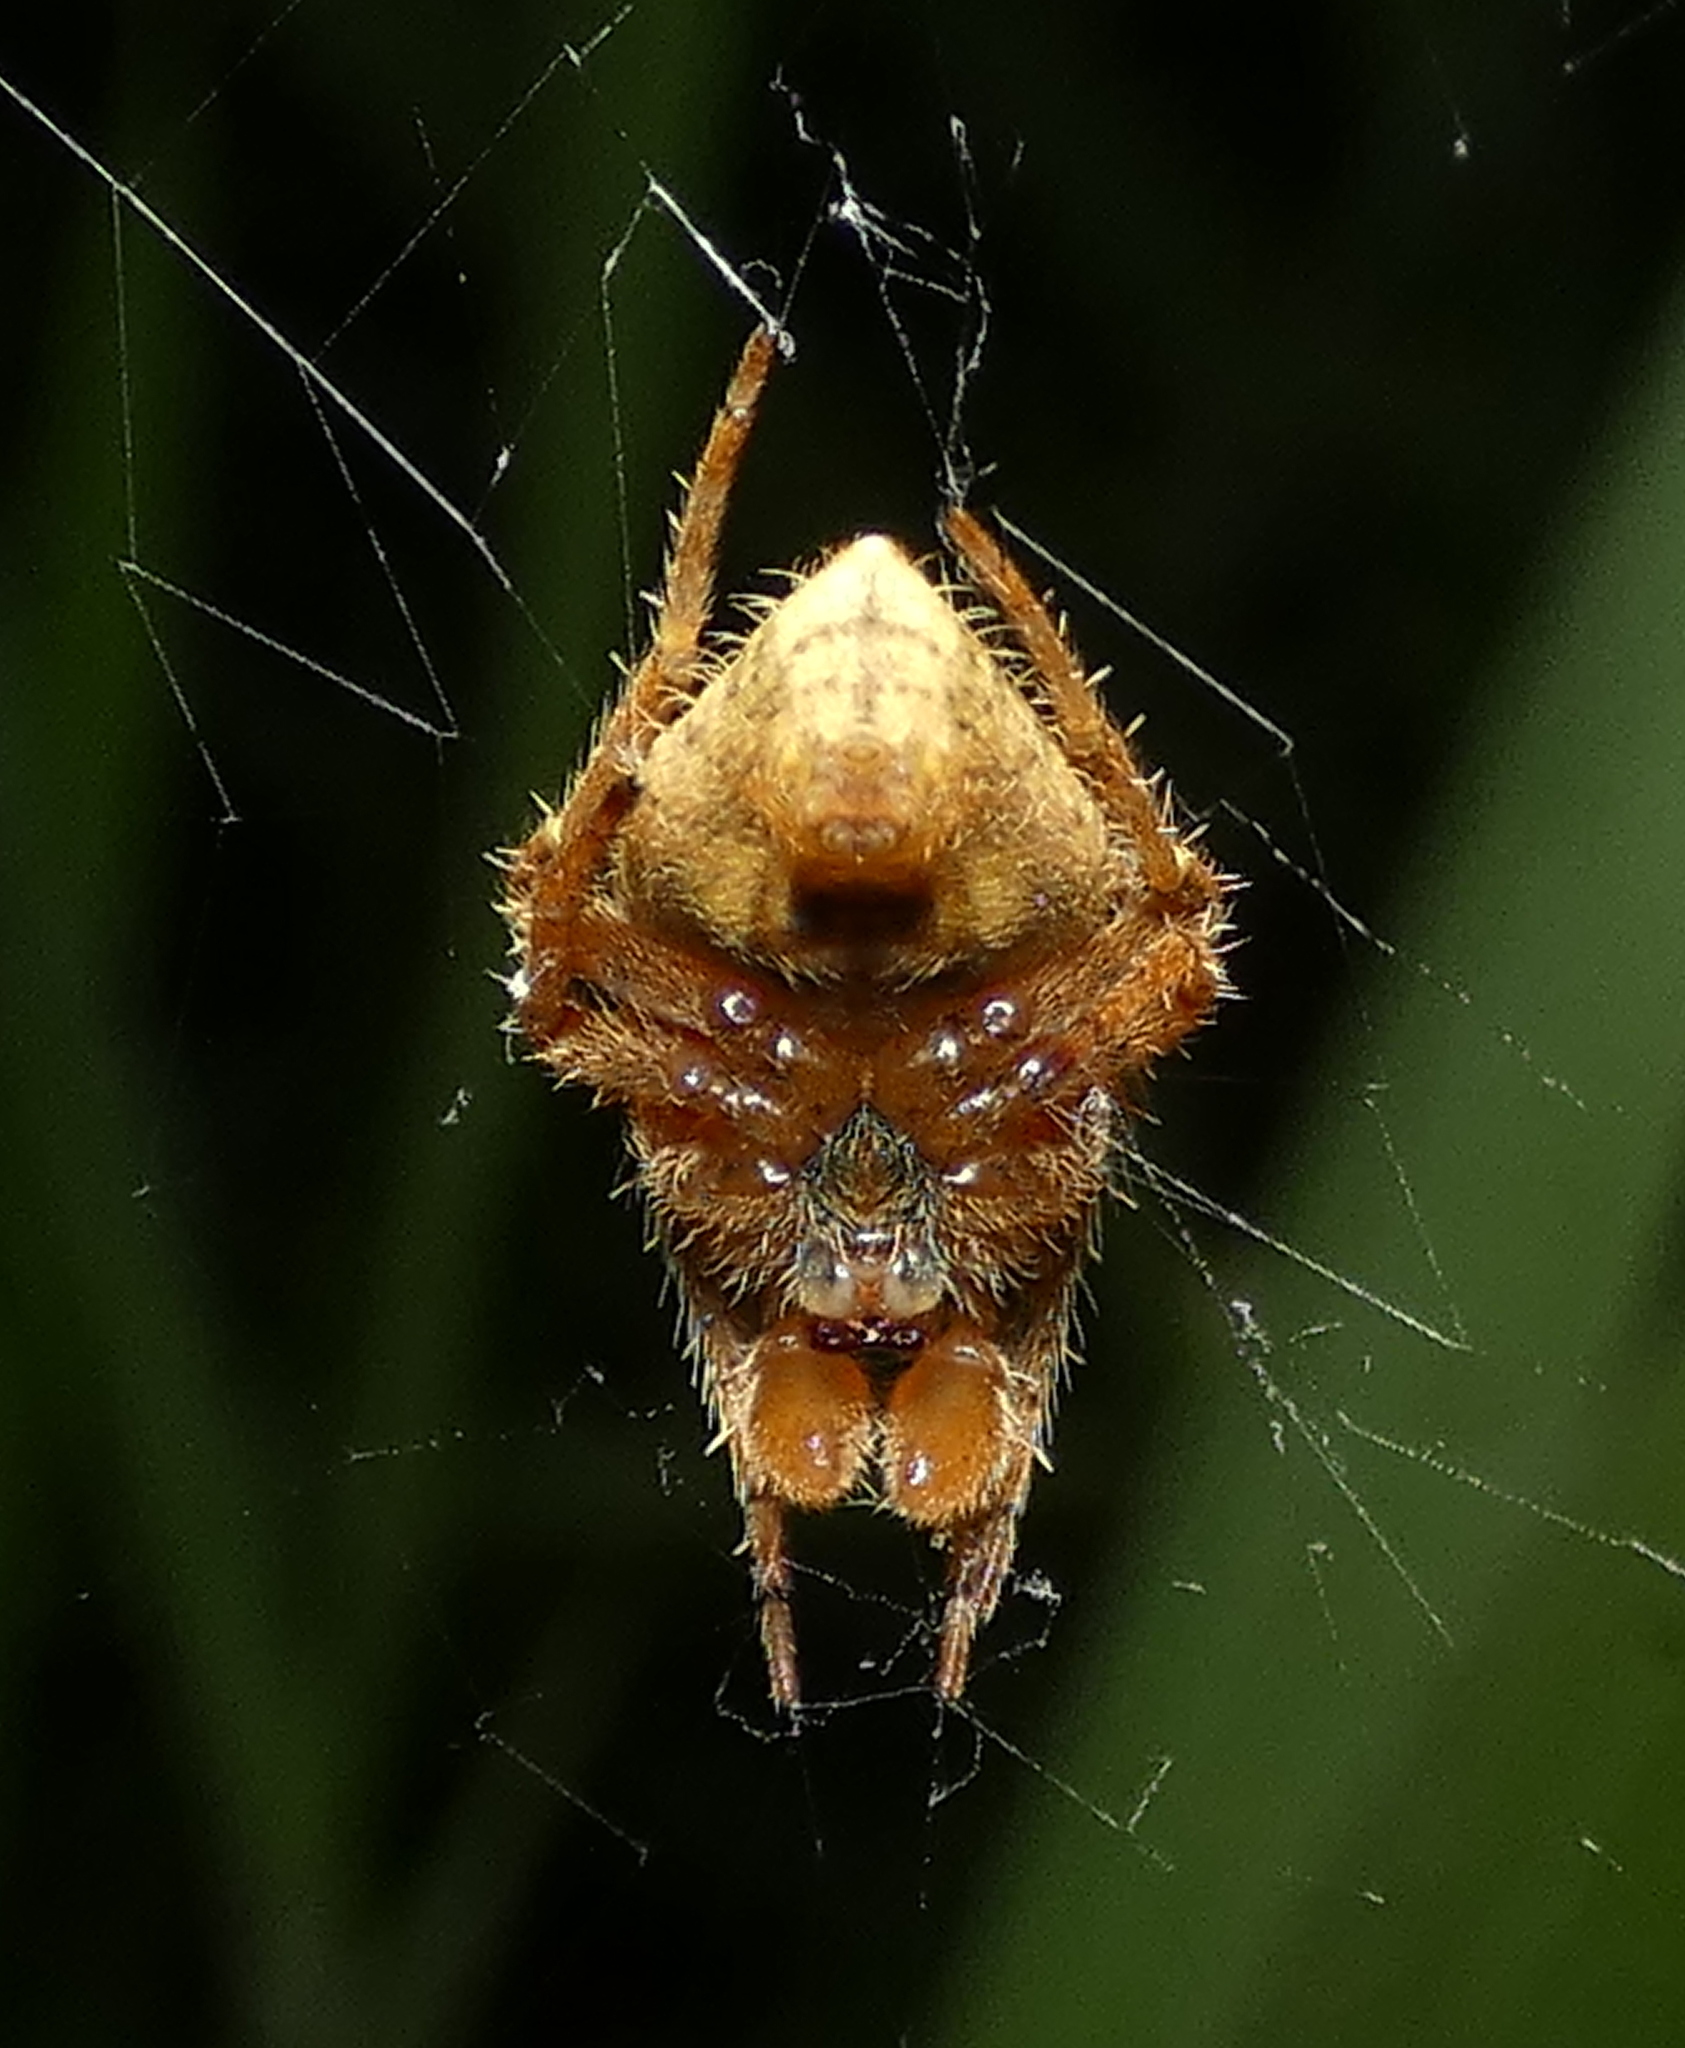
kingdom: Animalia
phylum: Arthropoda
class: Arachnida
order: Araneae
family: Araneidae
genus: Eriophora
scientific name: Eriophora edax
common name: Orb weavers
